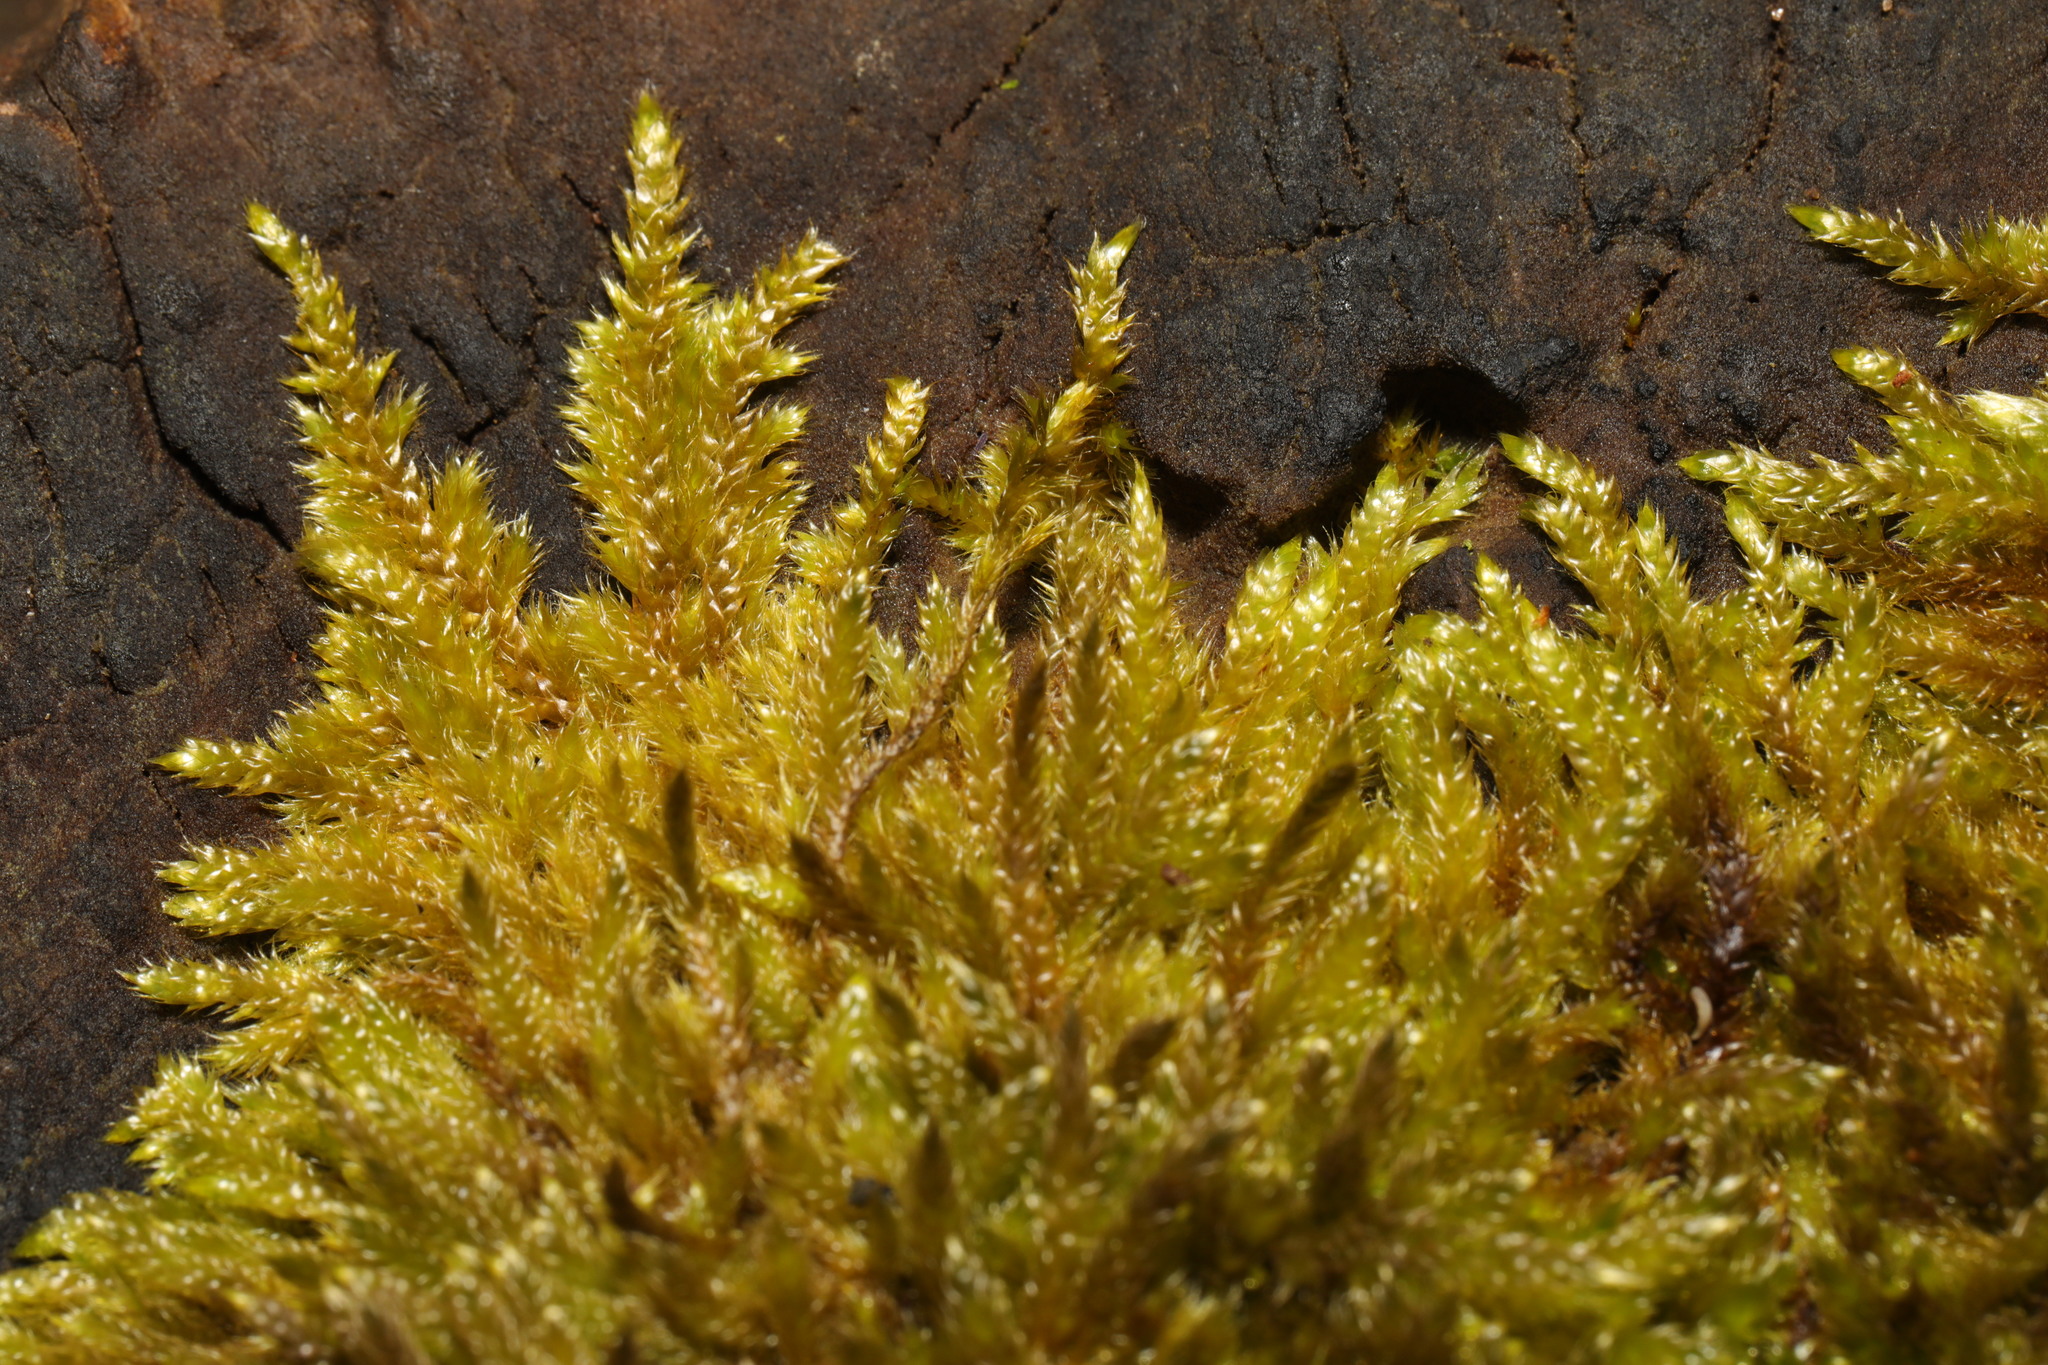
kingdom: Plantae
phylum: Bryophyta
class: Bryopsida
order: Hypnales
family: Hypnaceae
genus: Hypnum
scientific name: Hypnum cupressiforme
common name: Cypress-leaved plait-moss
